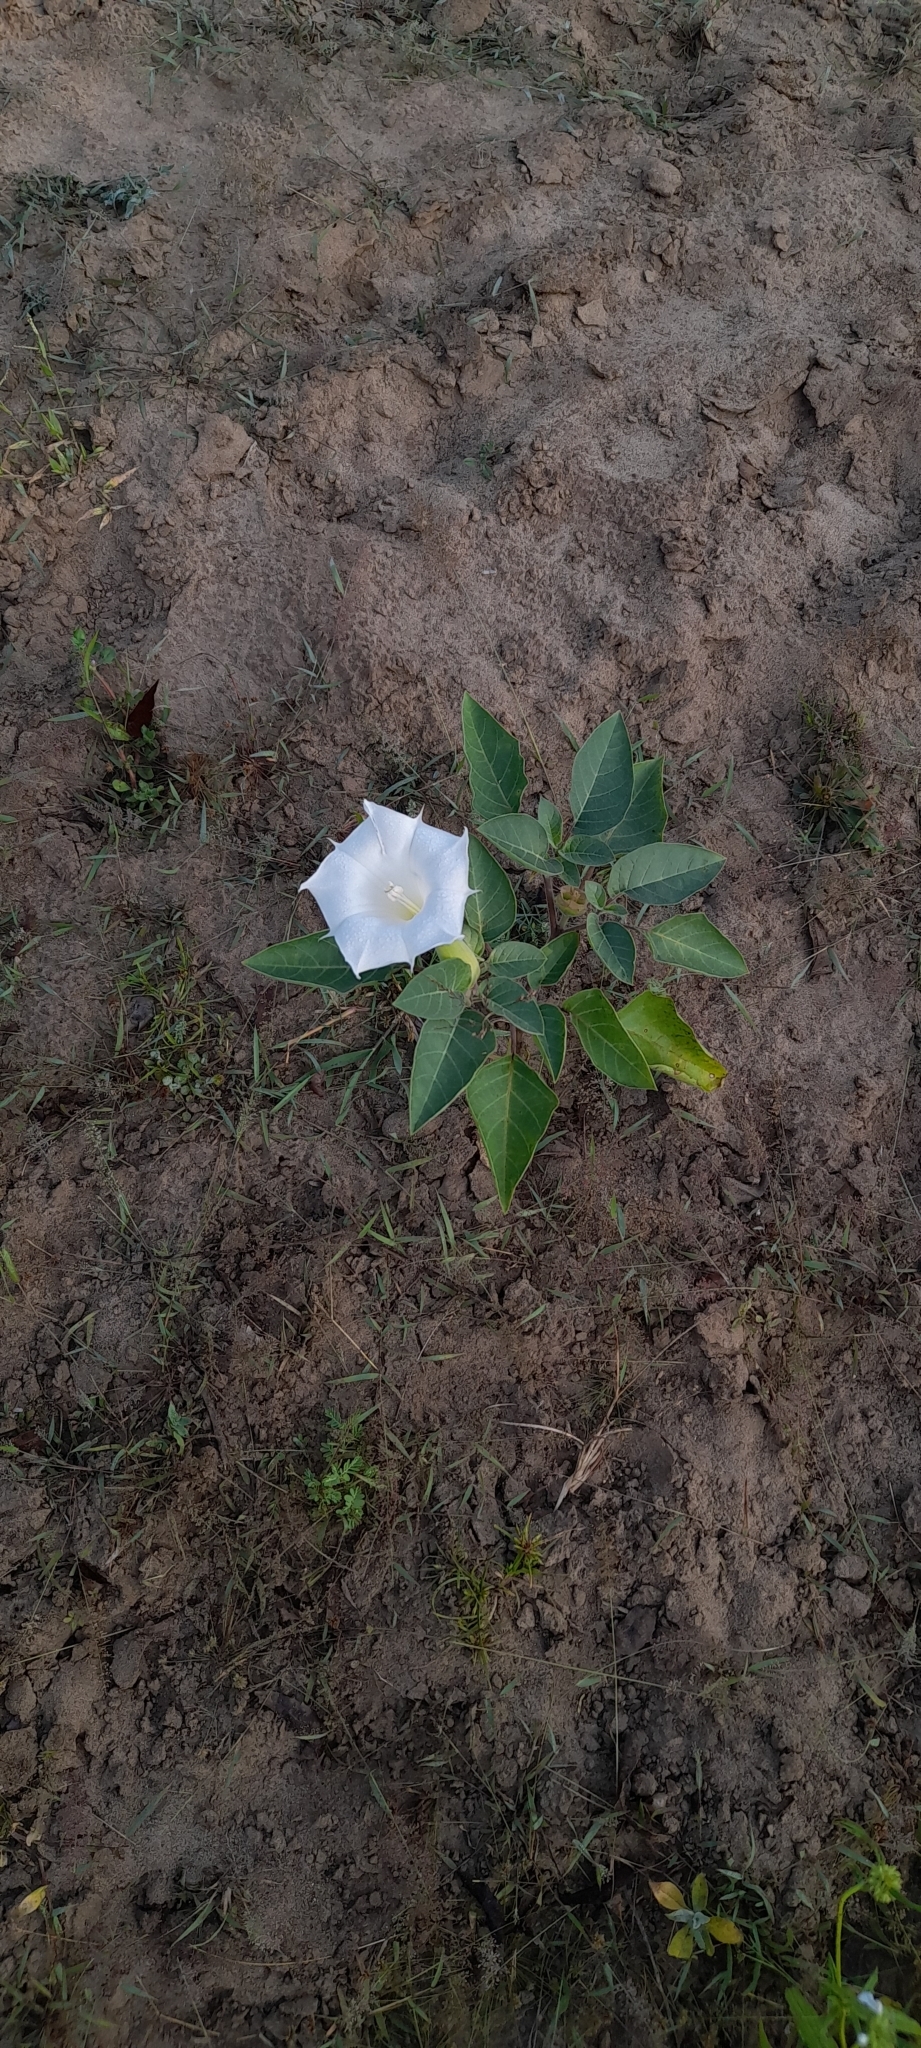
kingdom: Plantae
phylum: Tracheophyta
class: Magnoliopsida
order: Solanales
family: Solanaceae
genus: Datura
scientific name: Datura innoxia
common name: Downy thorn-apple
